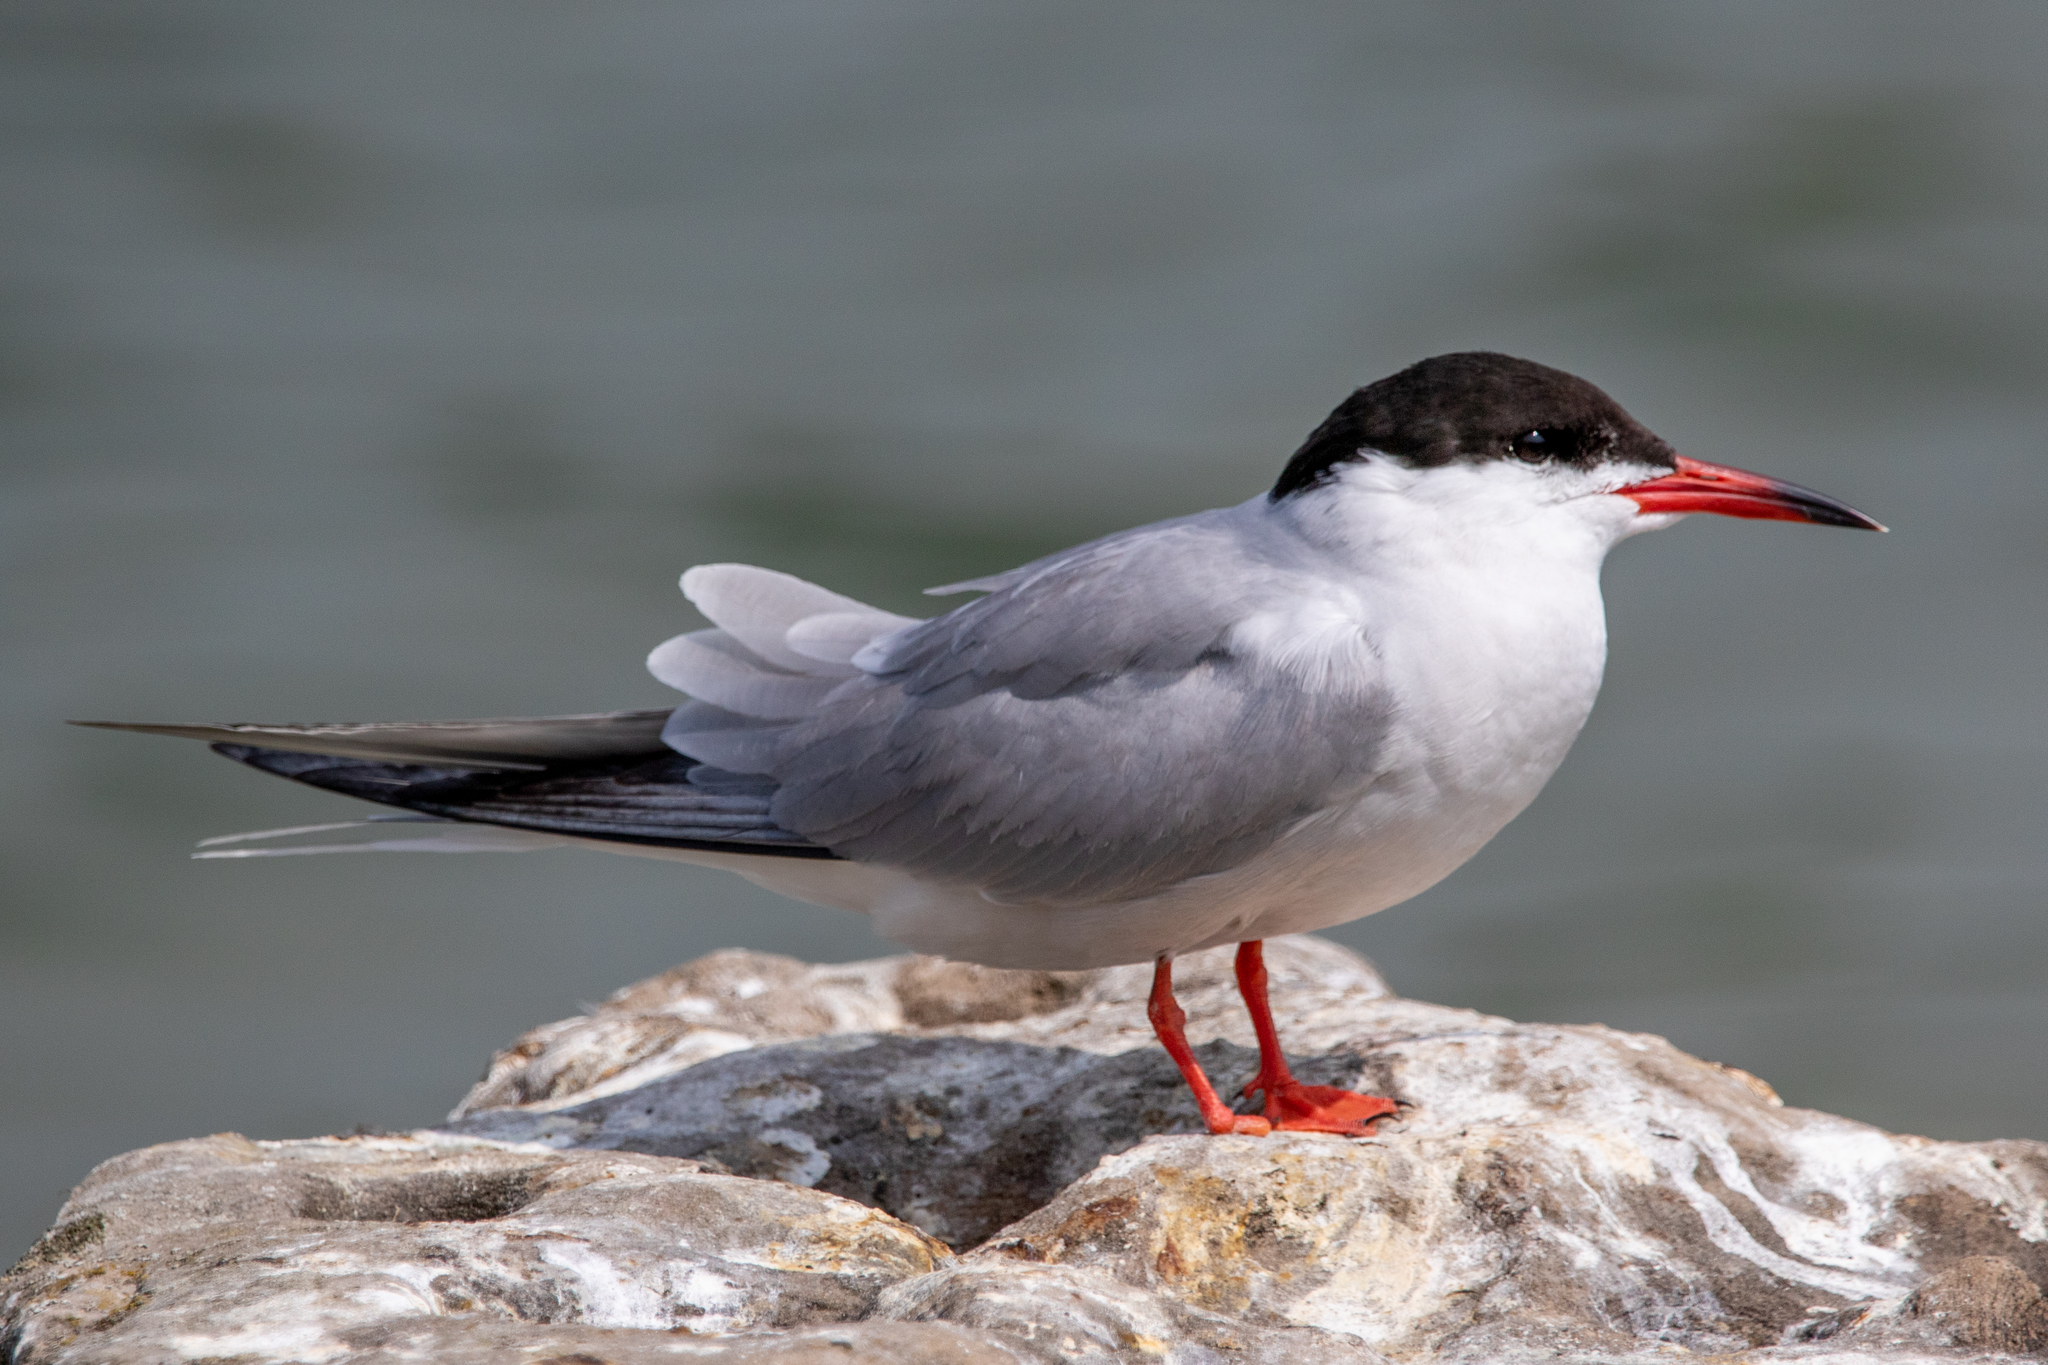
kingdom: Animalia
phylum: Chordata
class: Aves
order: Charadriiformes
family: Laridae
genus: Sterna
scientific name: Sterna hirundo
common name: Common tern
